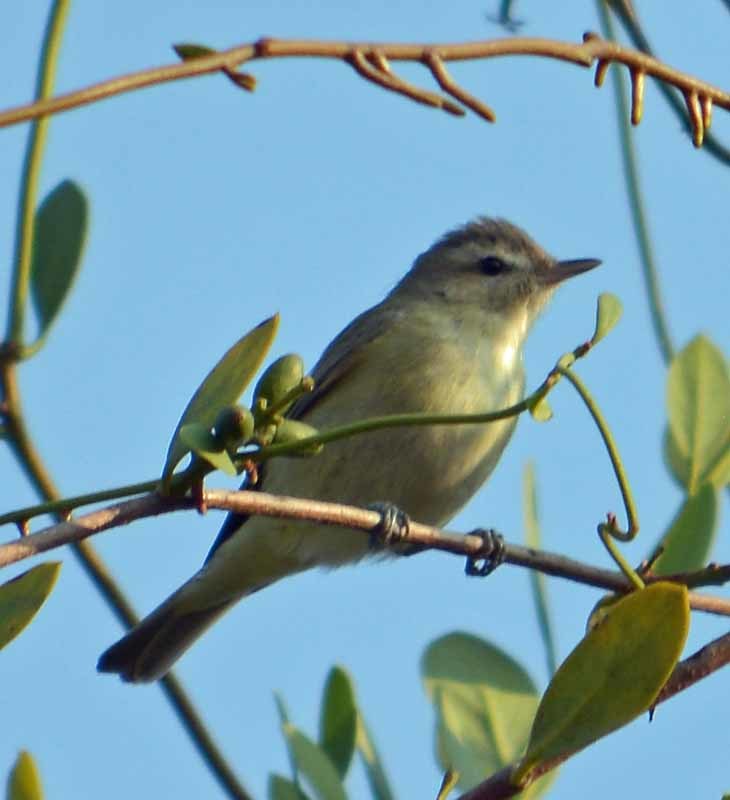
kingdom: Animalia
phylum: Chordata
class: Aves
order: Passeriformes
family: Vireonidae
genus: Vireo
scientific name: Vireo gilvus
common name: Warbling vireo
